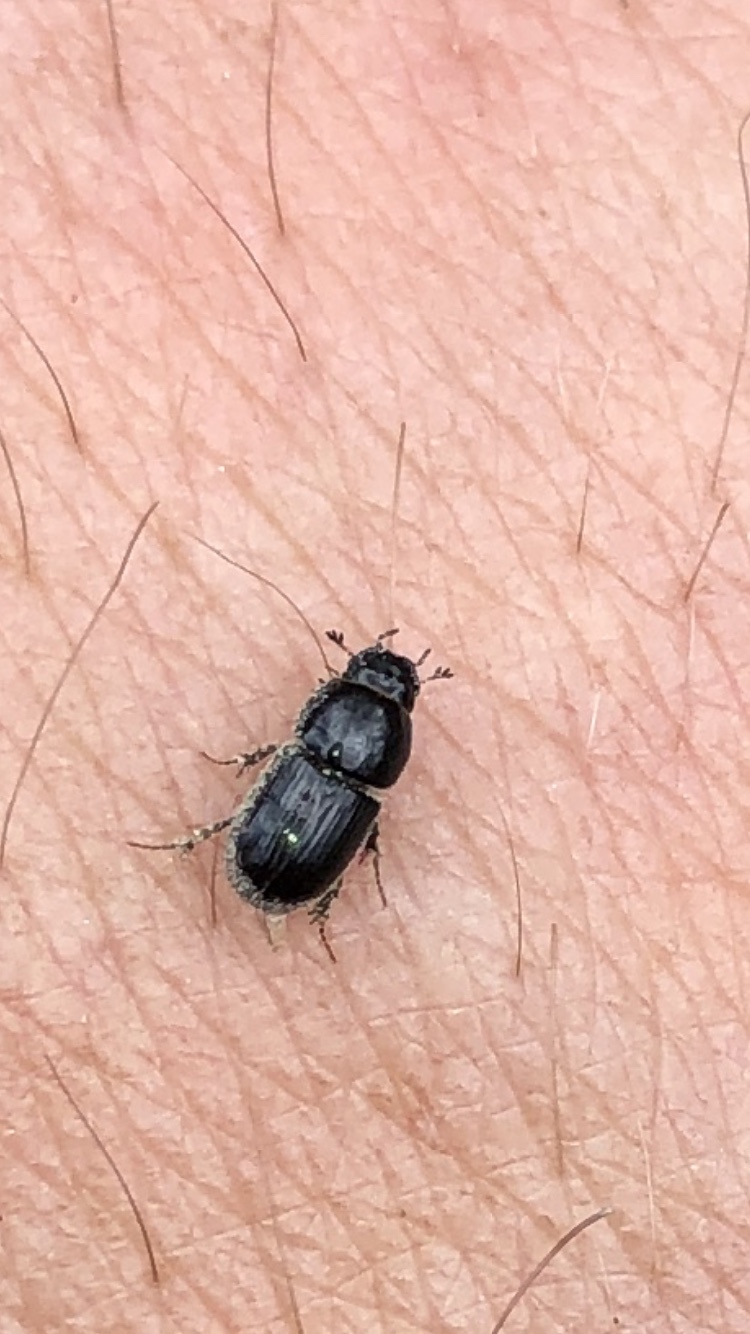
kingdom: Animalia
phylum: Arthropoda
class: Insecta
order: Coleoptera
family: Scarabaeidae
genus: Calamosternus
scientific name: Calamosternus granarius
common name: Granular small dung beetle
